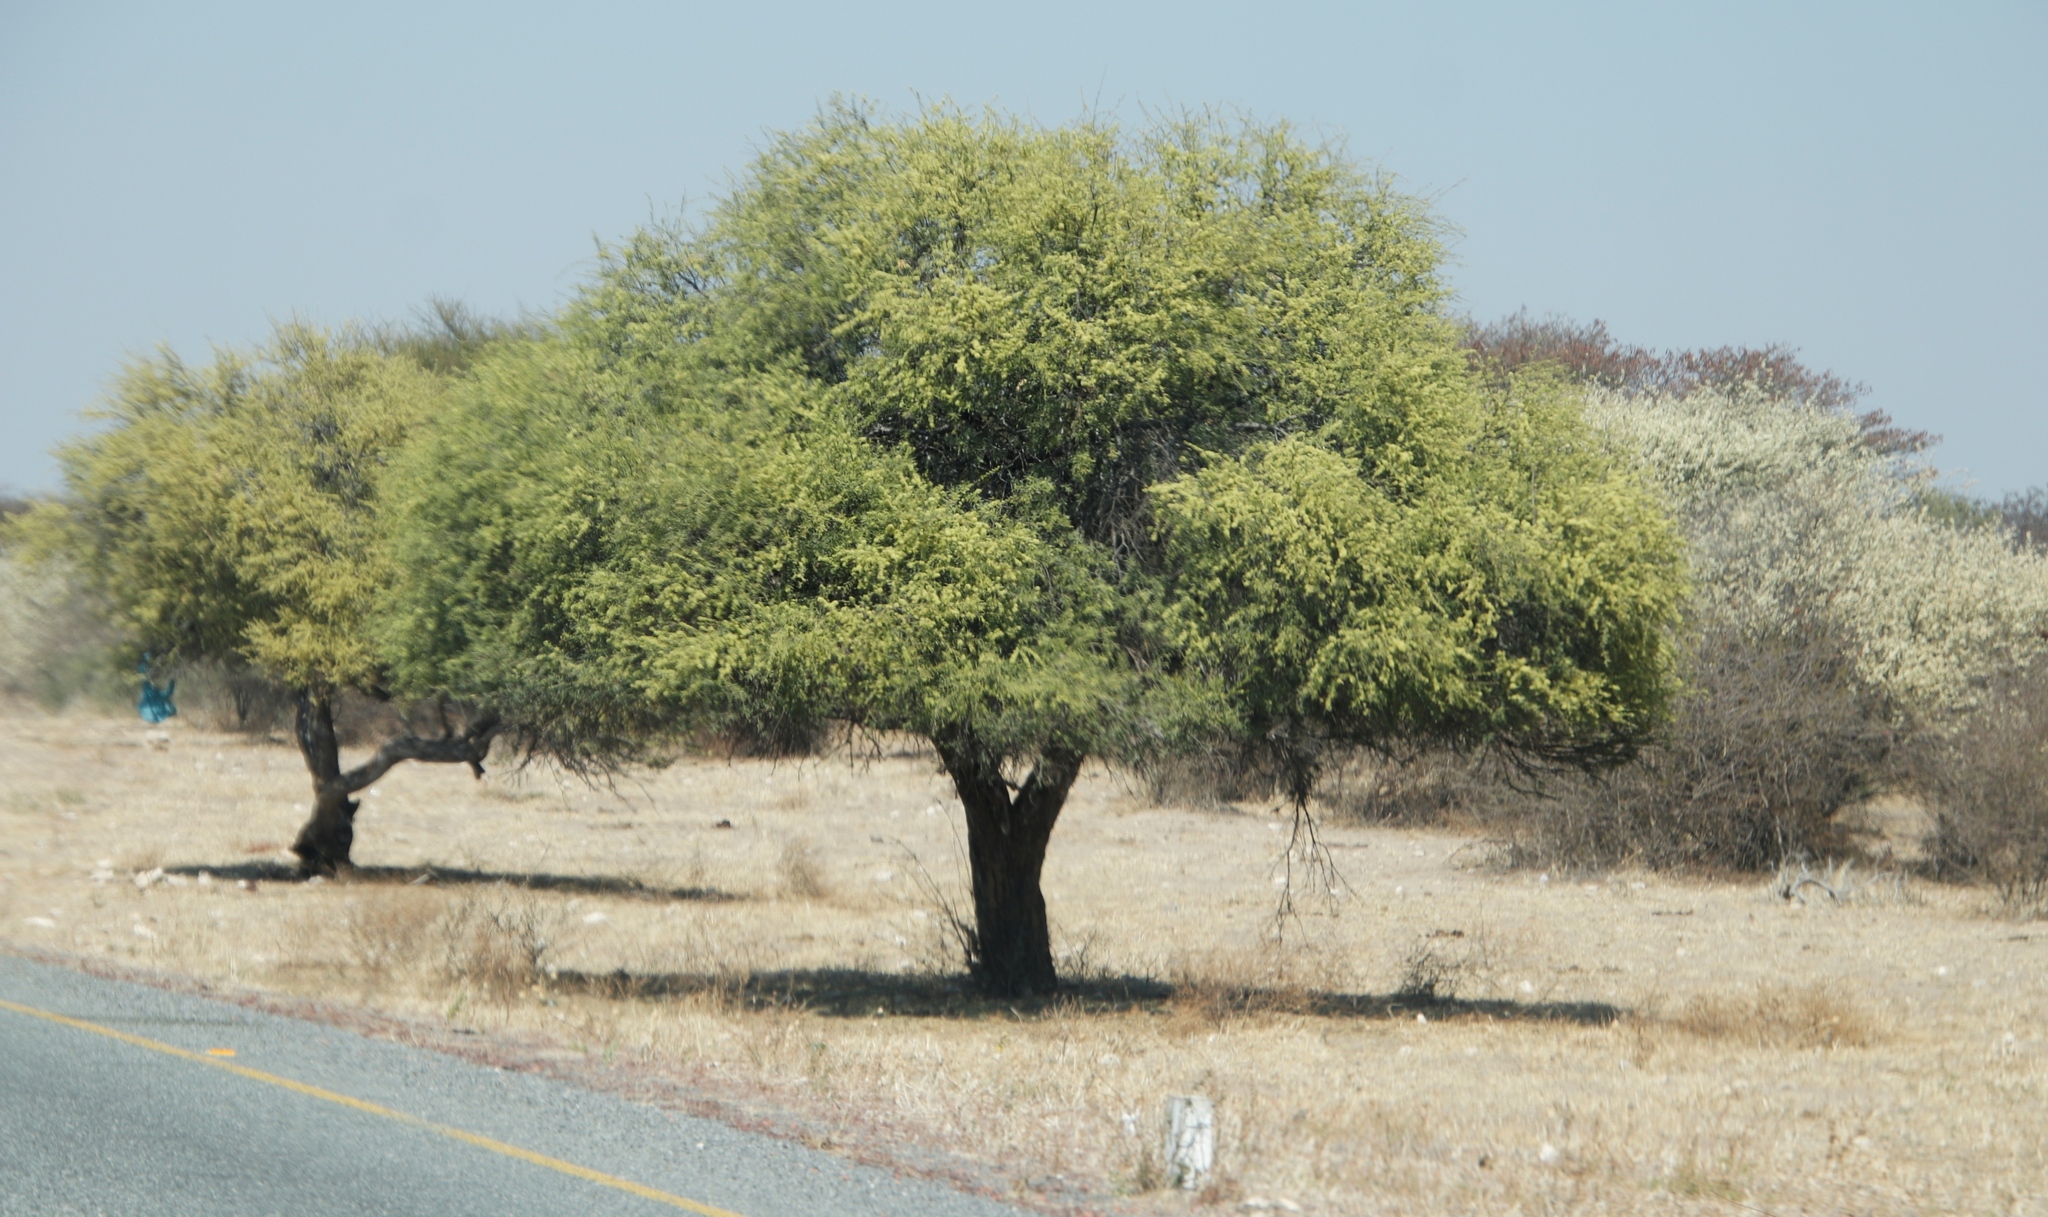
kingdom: Plantae
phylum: Tracheophyta
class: Magnoliopsida
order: Brassicales
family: Capparaceae
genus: Boscia
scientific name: Boscia albitrunca
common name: Caper bush
